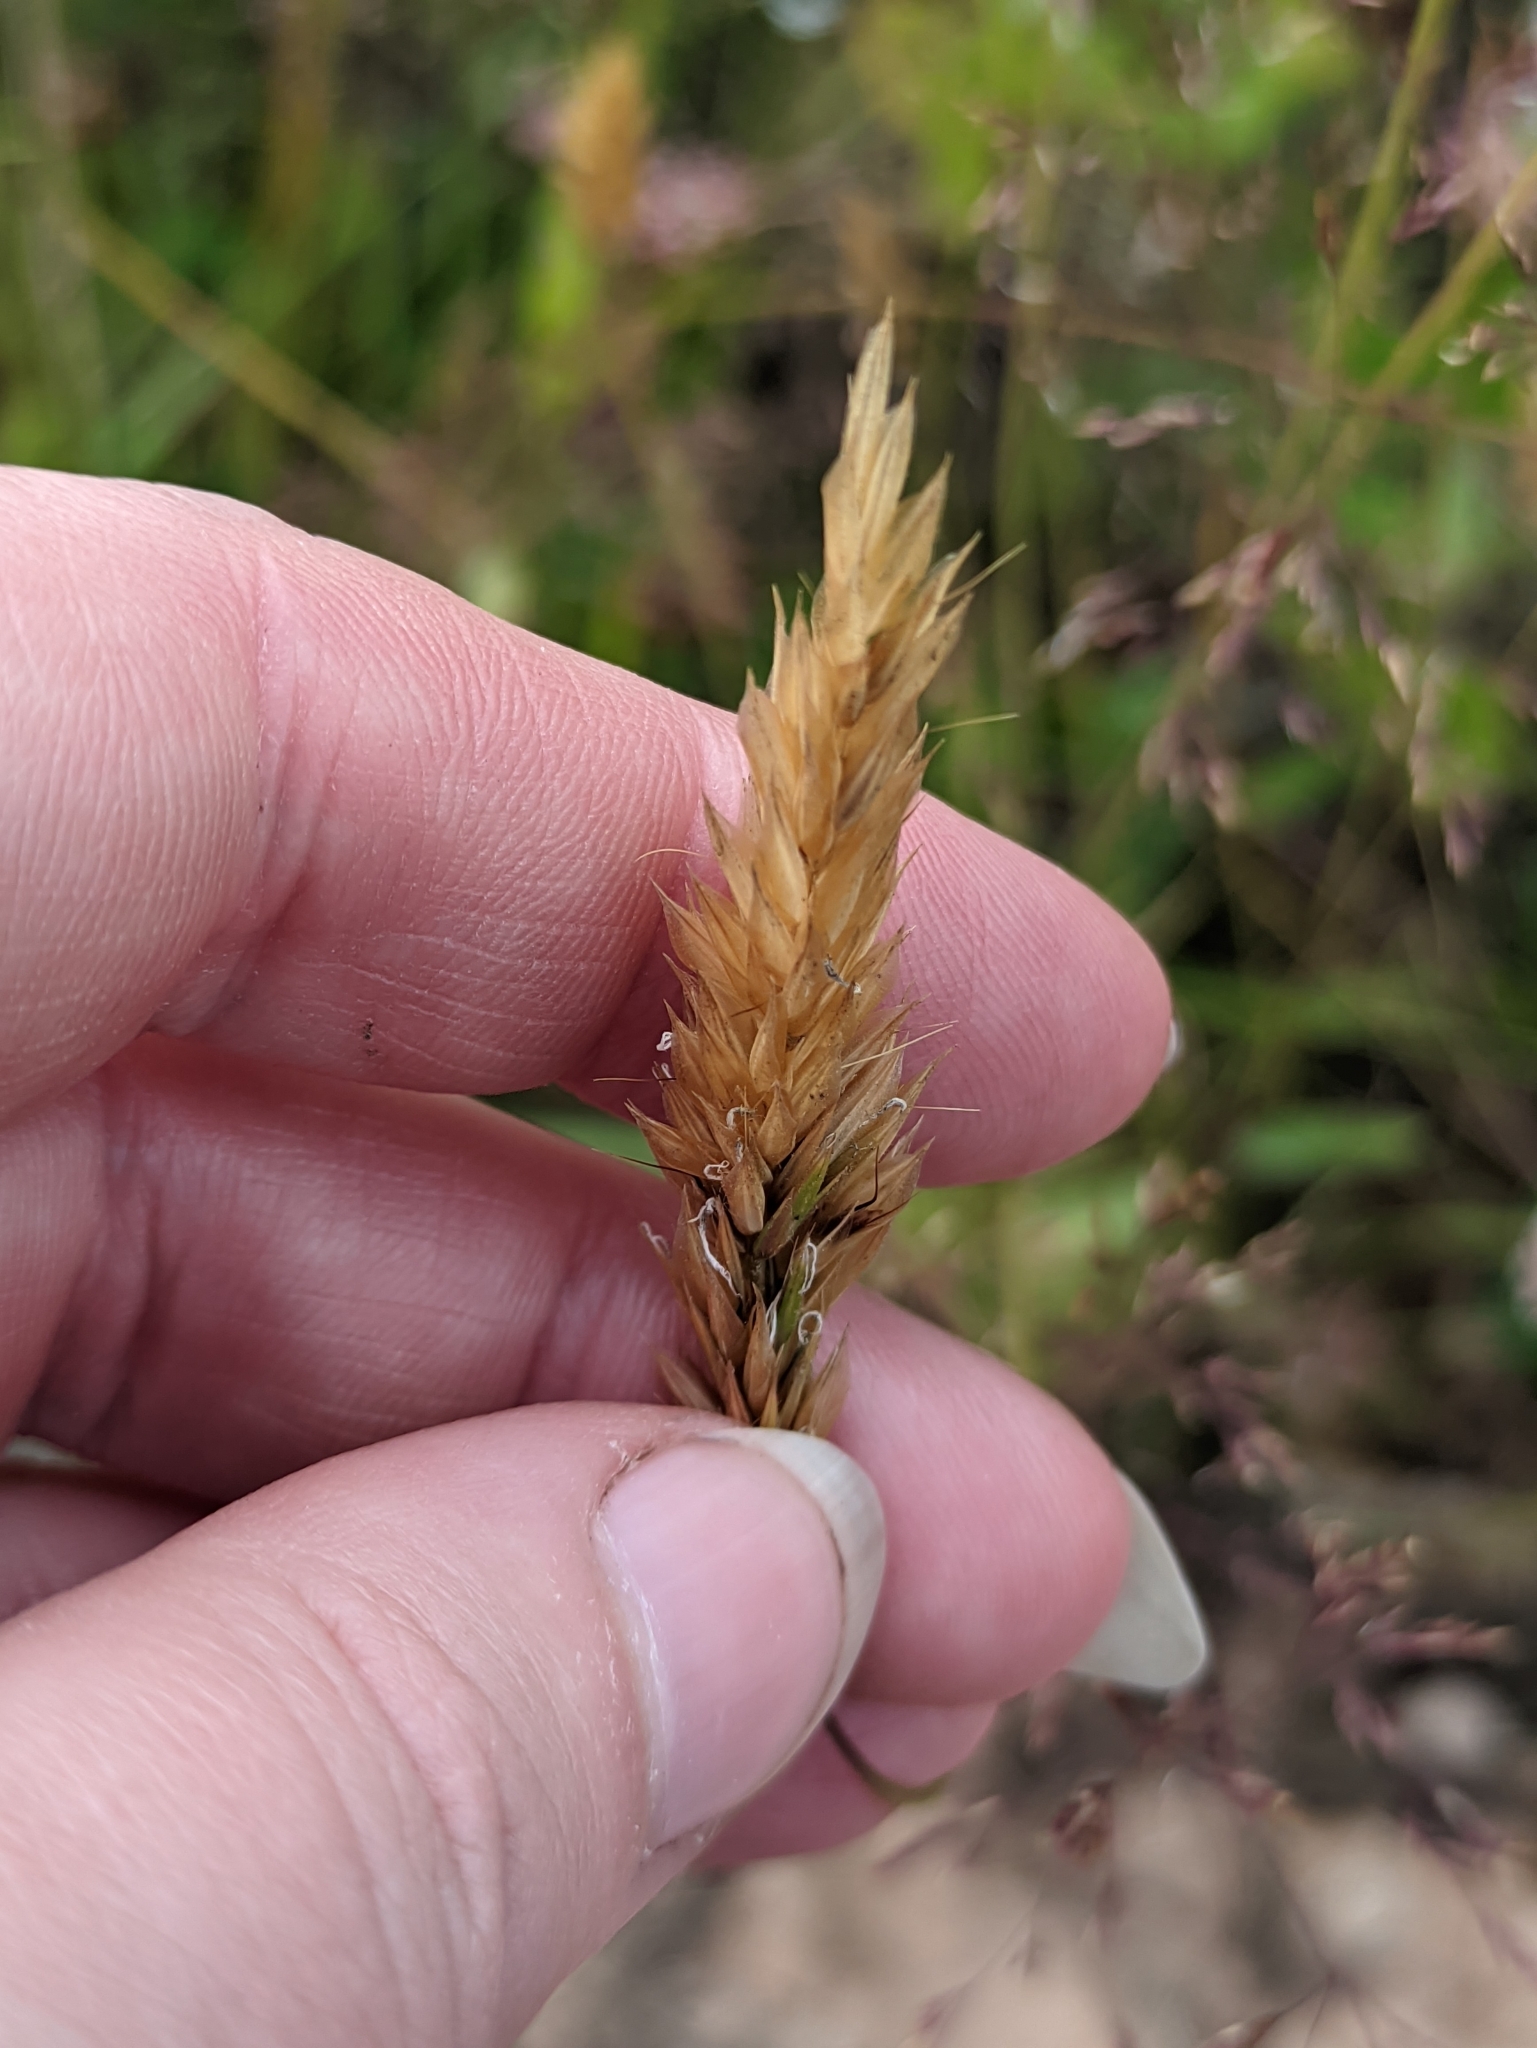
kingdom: Plantae
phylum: Tracheophyta
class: Liliopsida
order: Poales
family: Poaceae
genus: Anthoxanthum
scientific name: Anthoxanthum odoratum
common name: Sweet vernalgrass
